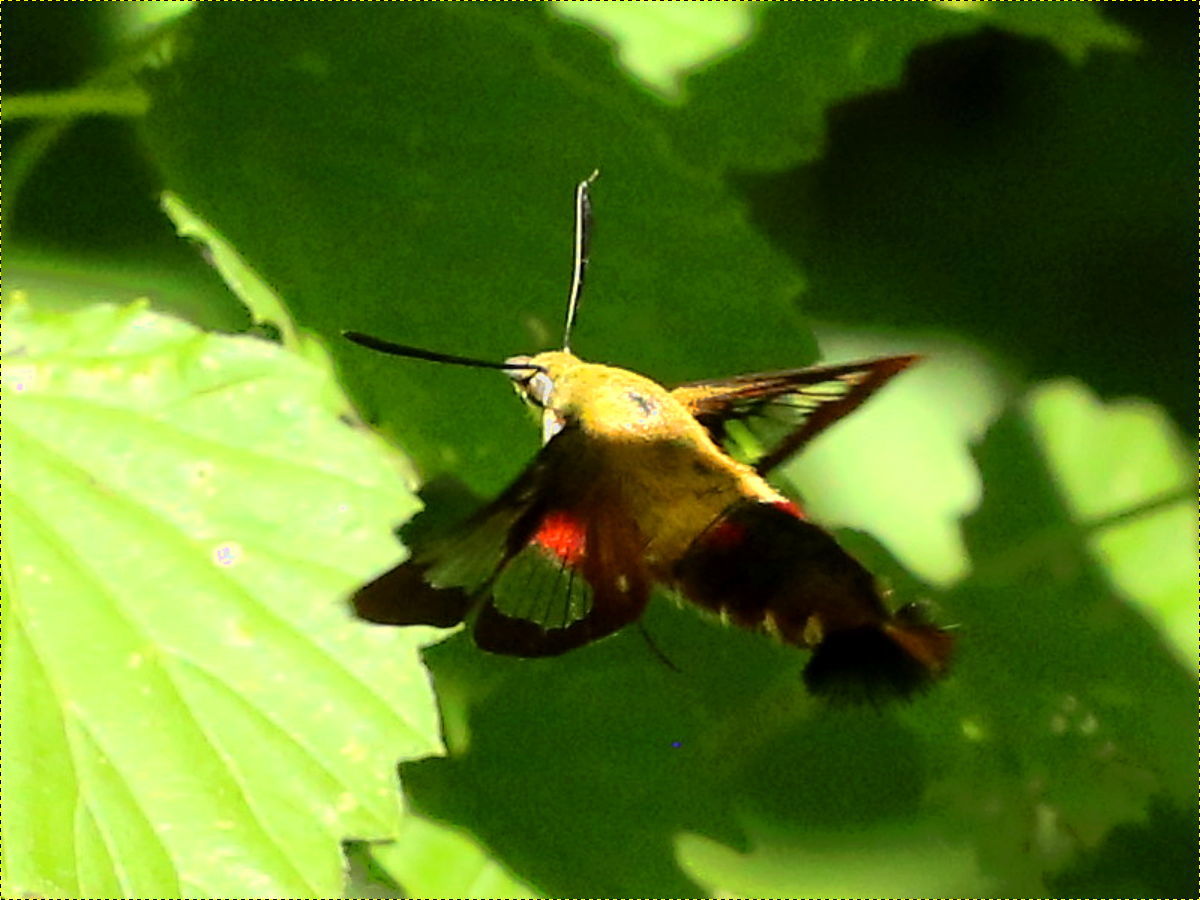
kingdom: Animalia
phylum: Arthropoda
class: Insecta
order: Lepidoptera
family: Sphingidae
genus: Hemaris
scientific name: Hemaris thysbe
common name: Common clear-wing
